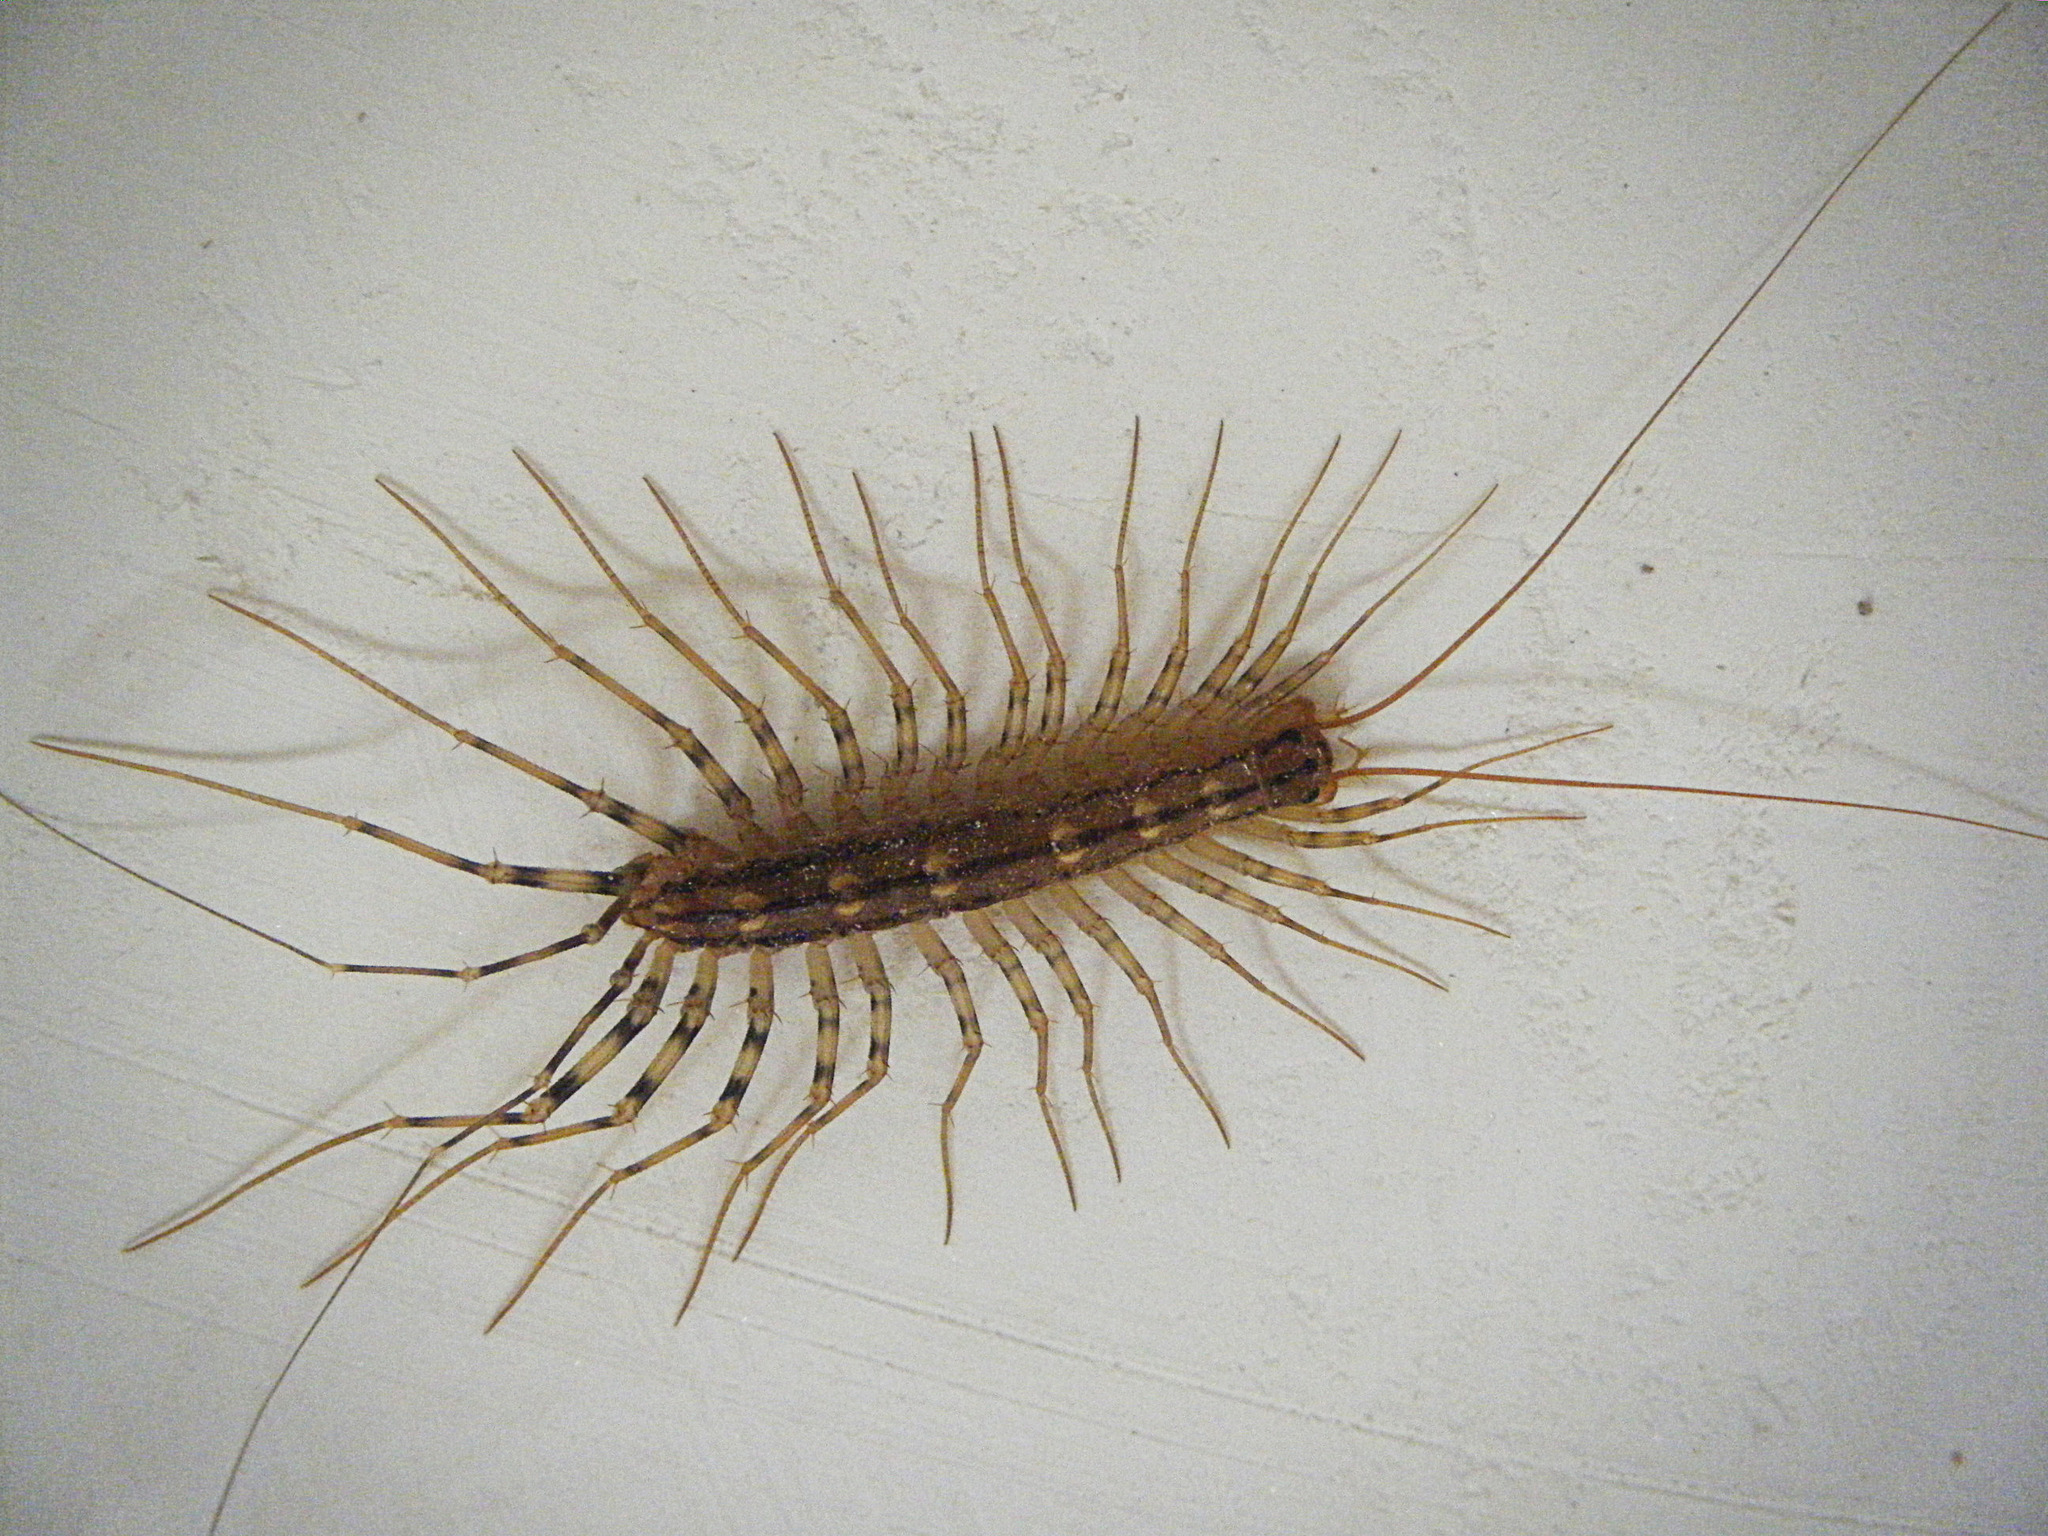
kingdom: Animalia
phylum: Arthropoda
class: Chilopoda
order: Scutigeromorpha
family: Scutigeridae
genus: Scutigera
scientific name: Scutigera coleoptrata
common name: House centipede
